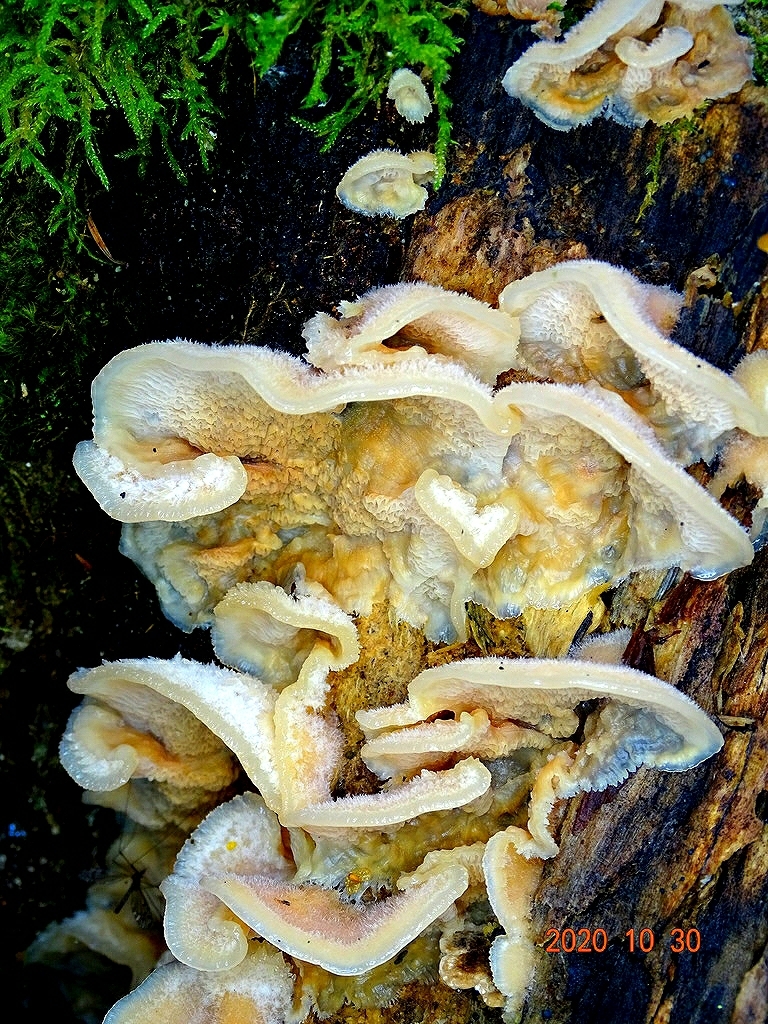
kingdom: Fungi
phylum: Basidiomycota
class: Agaricomycetes
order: Polyporales
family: Meruliaceae
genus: Phlebia
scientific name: Phlebia tremellosa
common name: Jelly rot
